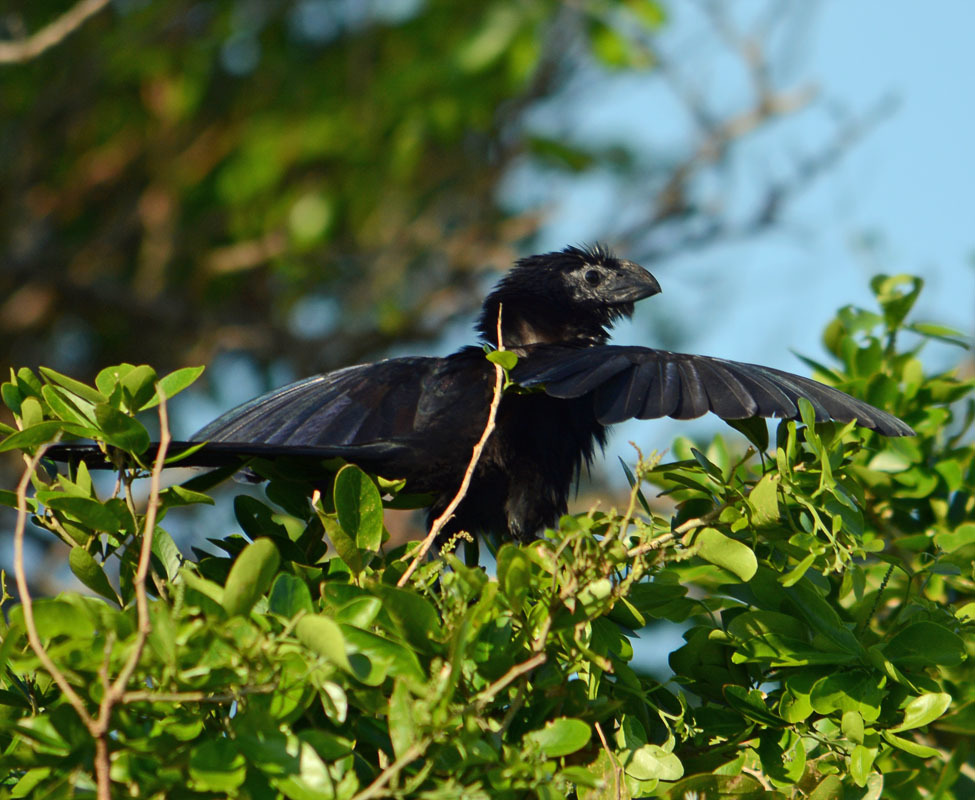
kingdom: Animalia
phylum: Chordata
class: Aves
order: Cuculiformes
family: Cuculidae
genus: Crotophaga
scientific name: Crotophaga sulcirostris
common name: Groove-billed ani
